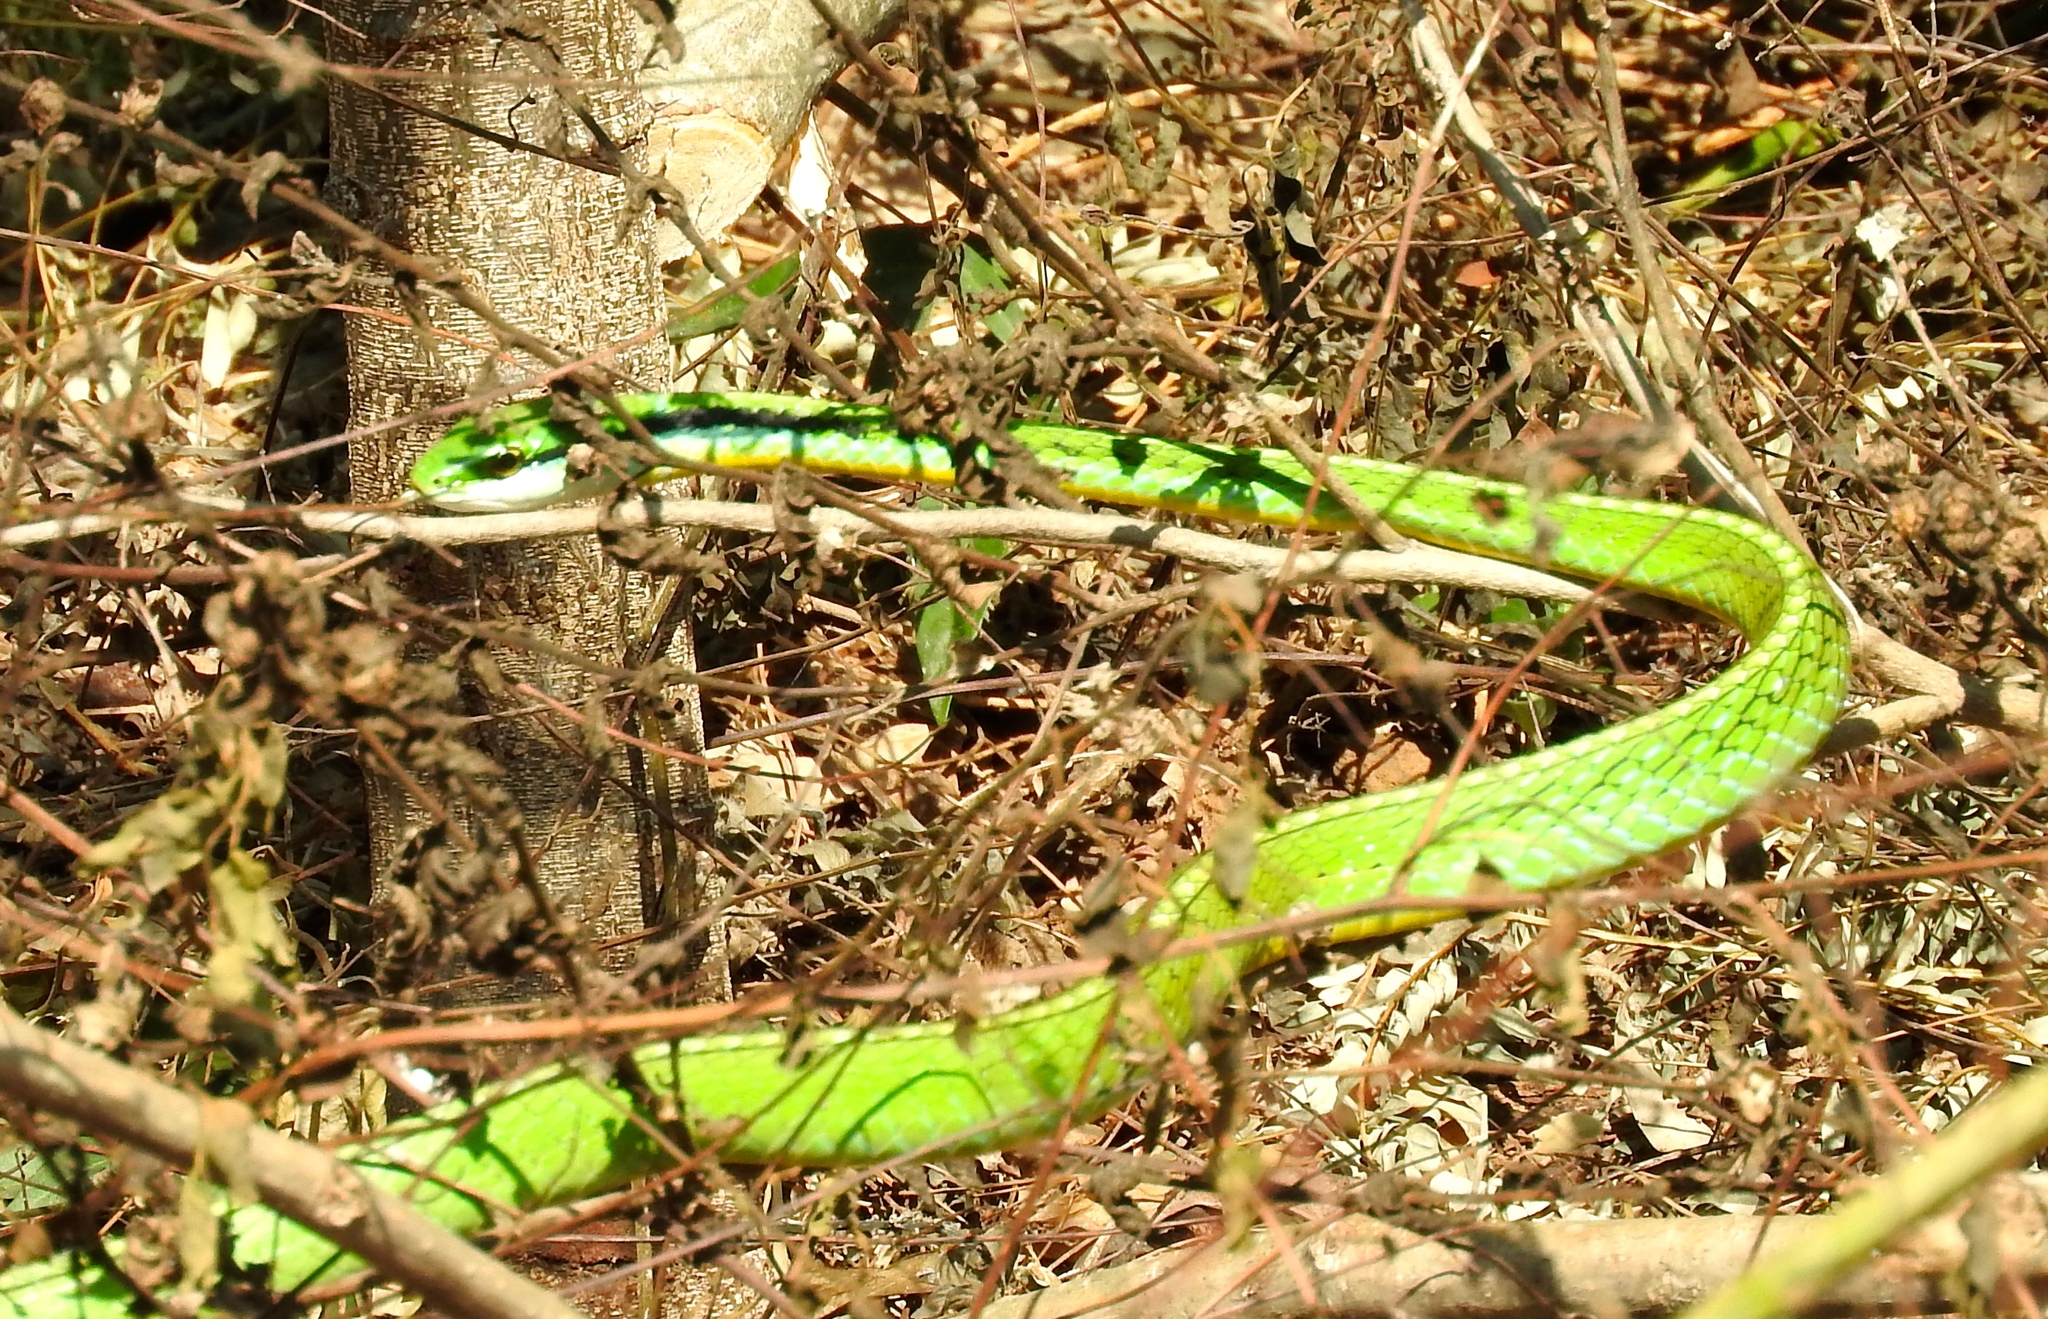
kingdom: Animalia
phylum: Chordata
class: Squamata
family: Colubridae
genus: Leptophis
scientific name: Leptophis diplotropis
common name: Pacific coast parrot snake
